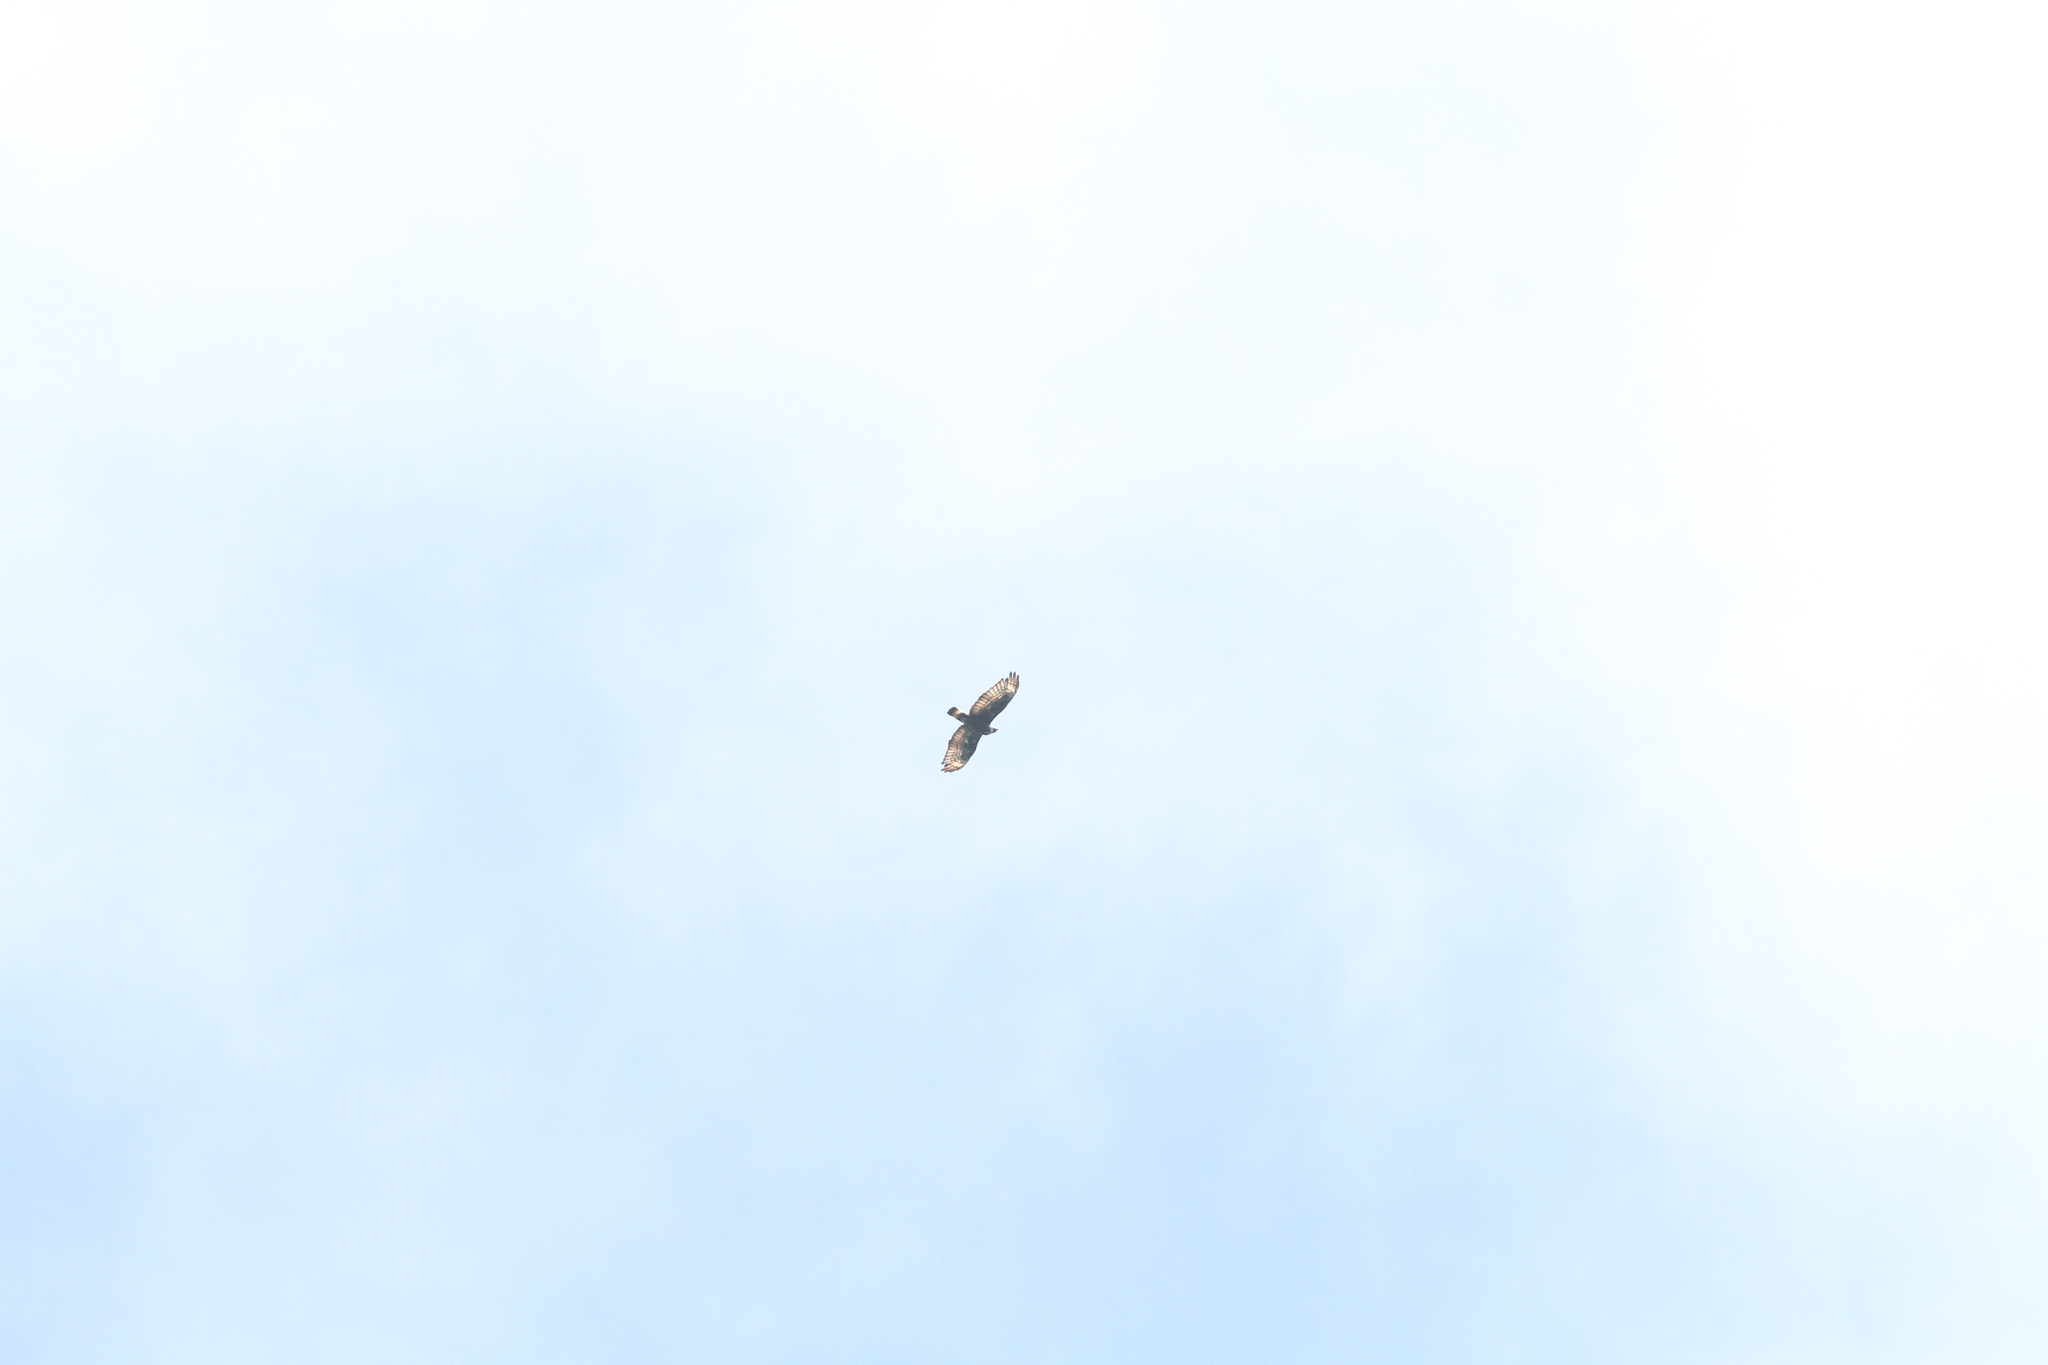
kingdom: Animalia
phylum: Chordata
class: Aves
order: Accipitriformes
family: Accipitridae
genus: Pernis
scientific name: Pernis ptilorhynchus
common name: Crested honey buzzard
